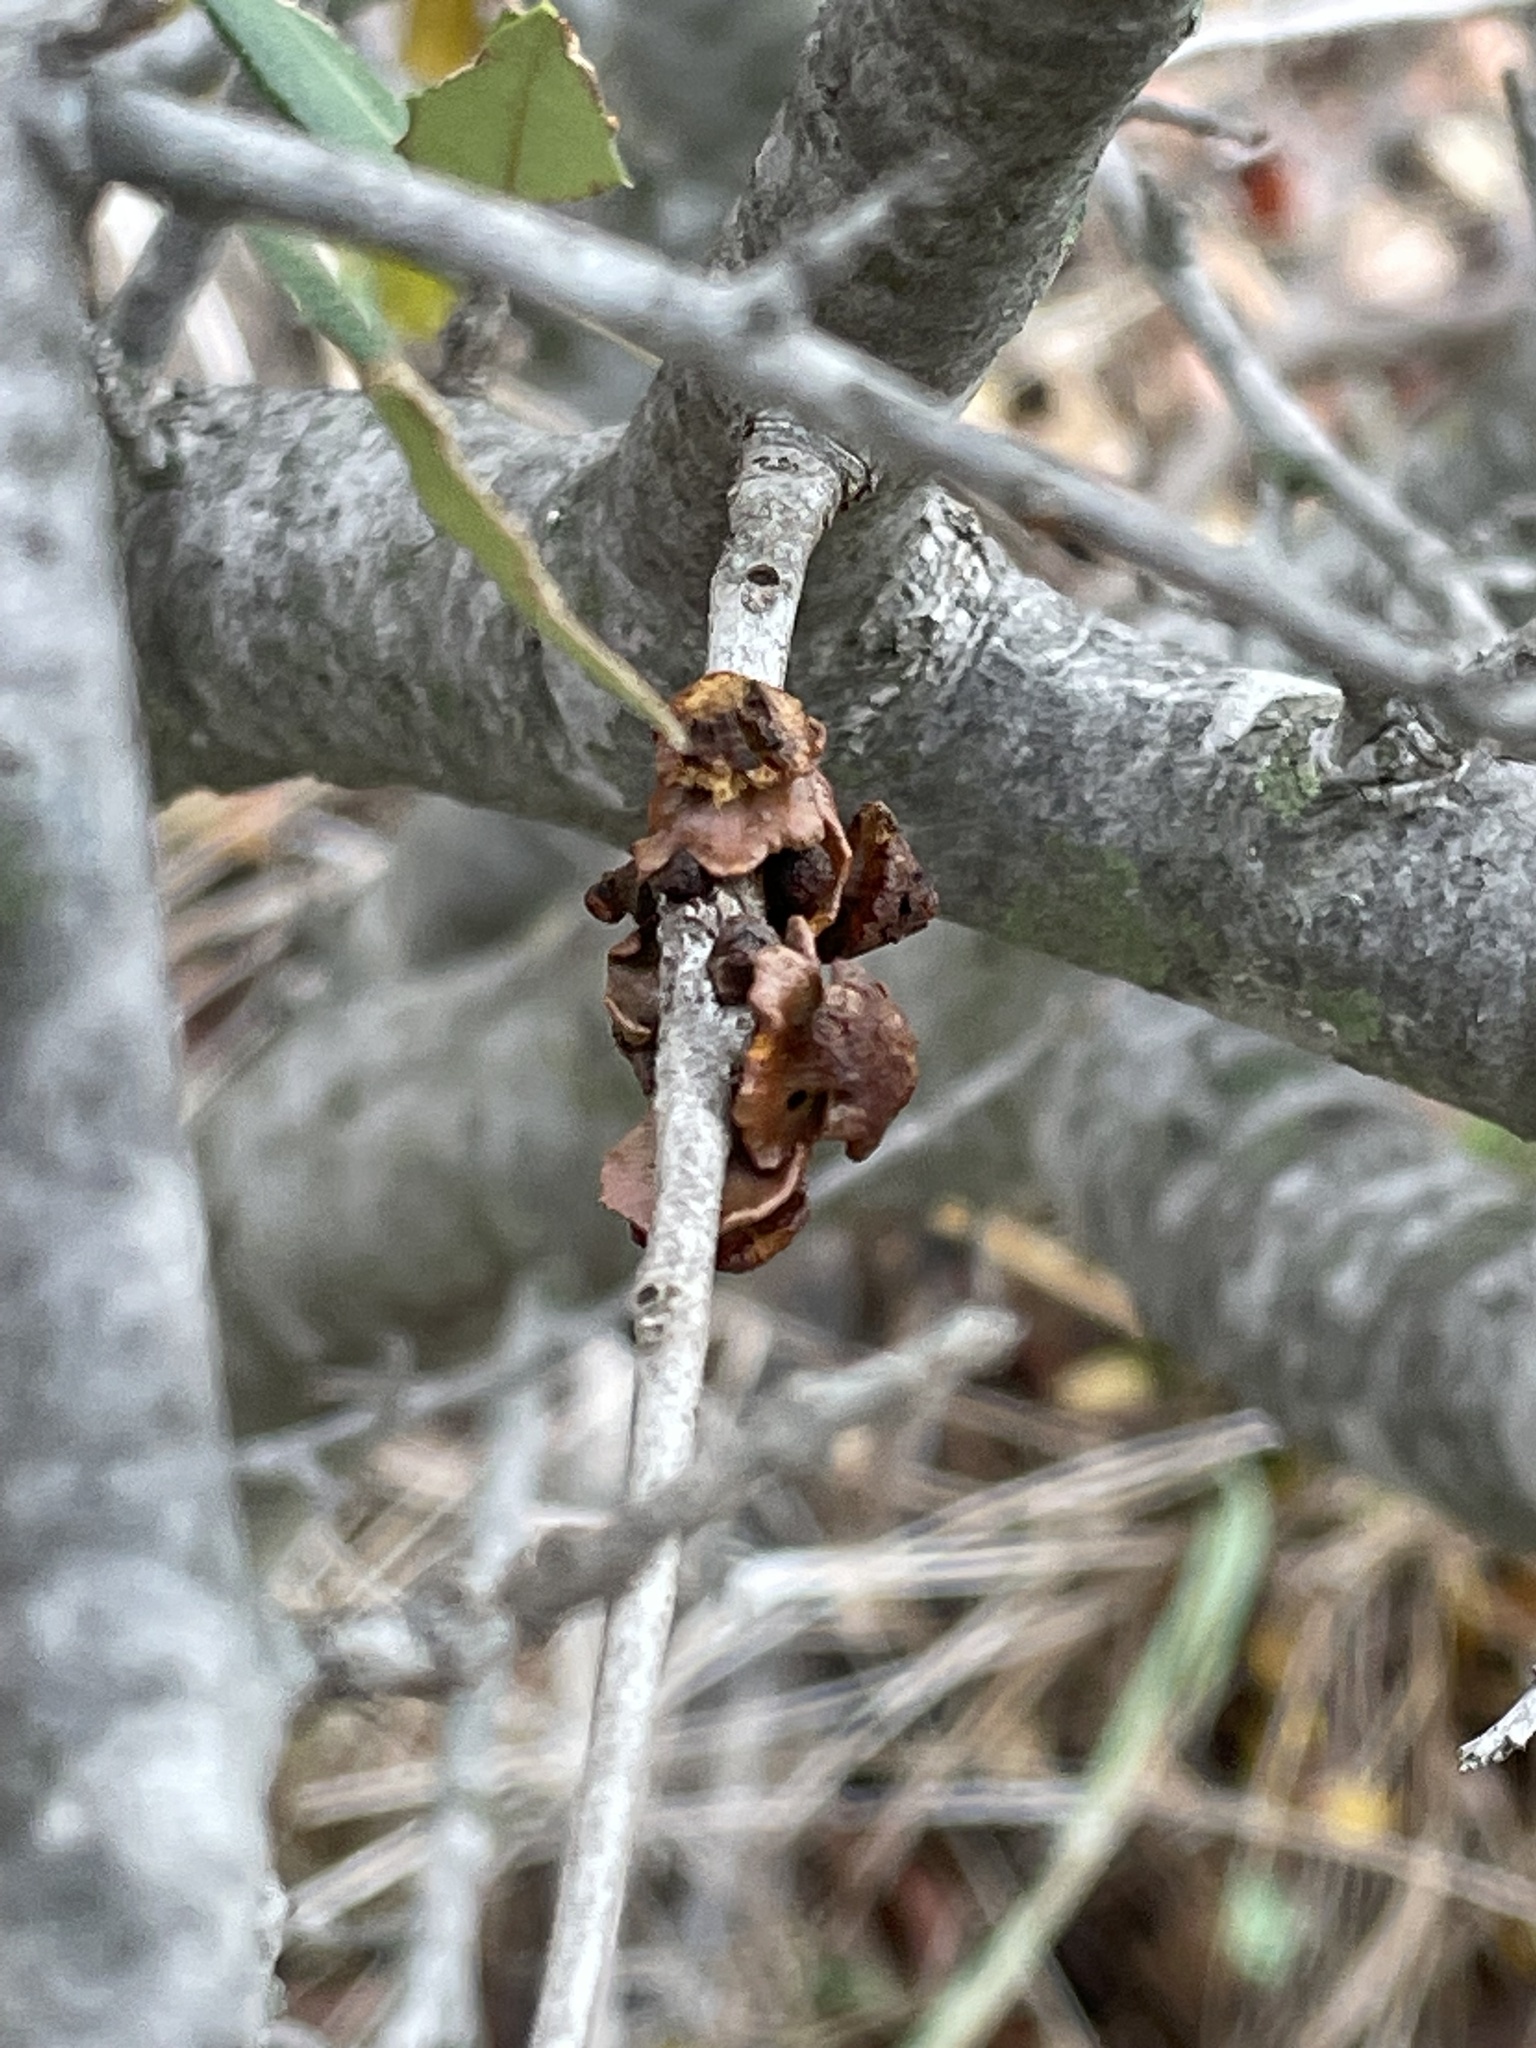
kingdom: Animalia
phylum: Arthropoda
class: Insecta
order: Hymenoptera
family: Cynipidae
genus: Disholcaspis
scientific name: Disholcaspis
